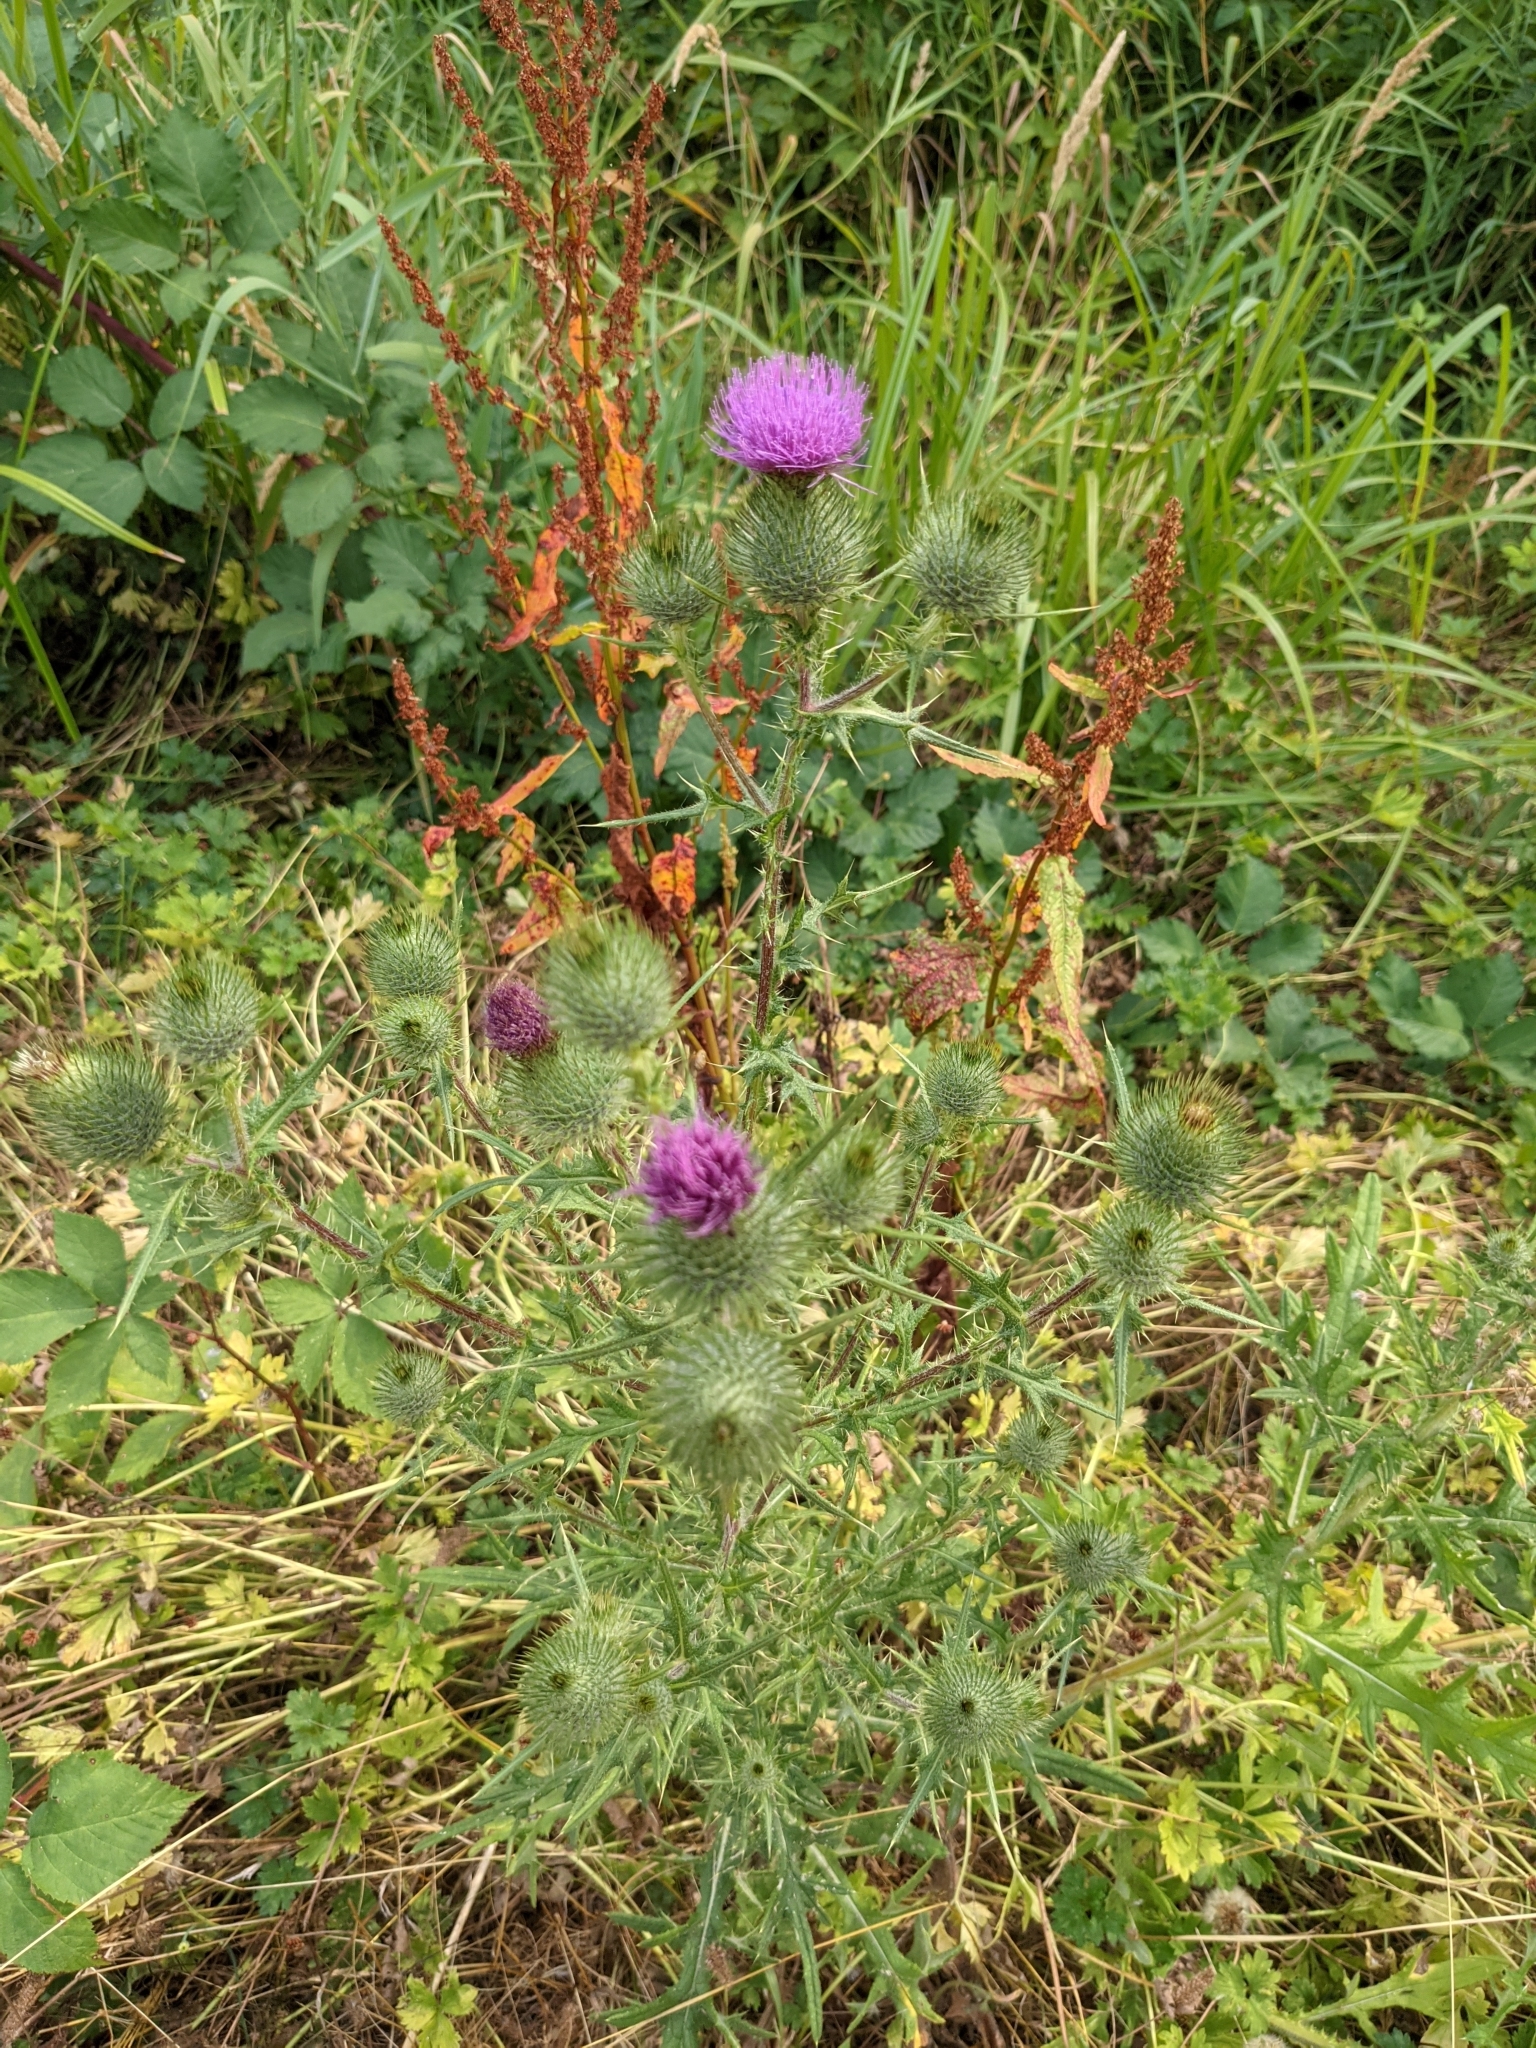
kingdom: Plantae
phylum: Tracheophyta
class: Magnoliopsida
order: Asterales
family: Asteraceae
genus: Cirsium
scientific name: Cirsium vulgare
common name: Bull thistle
